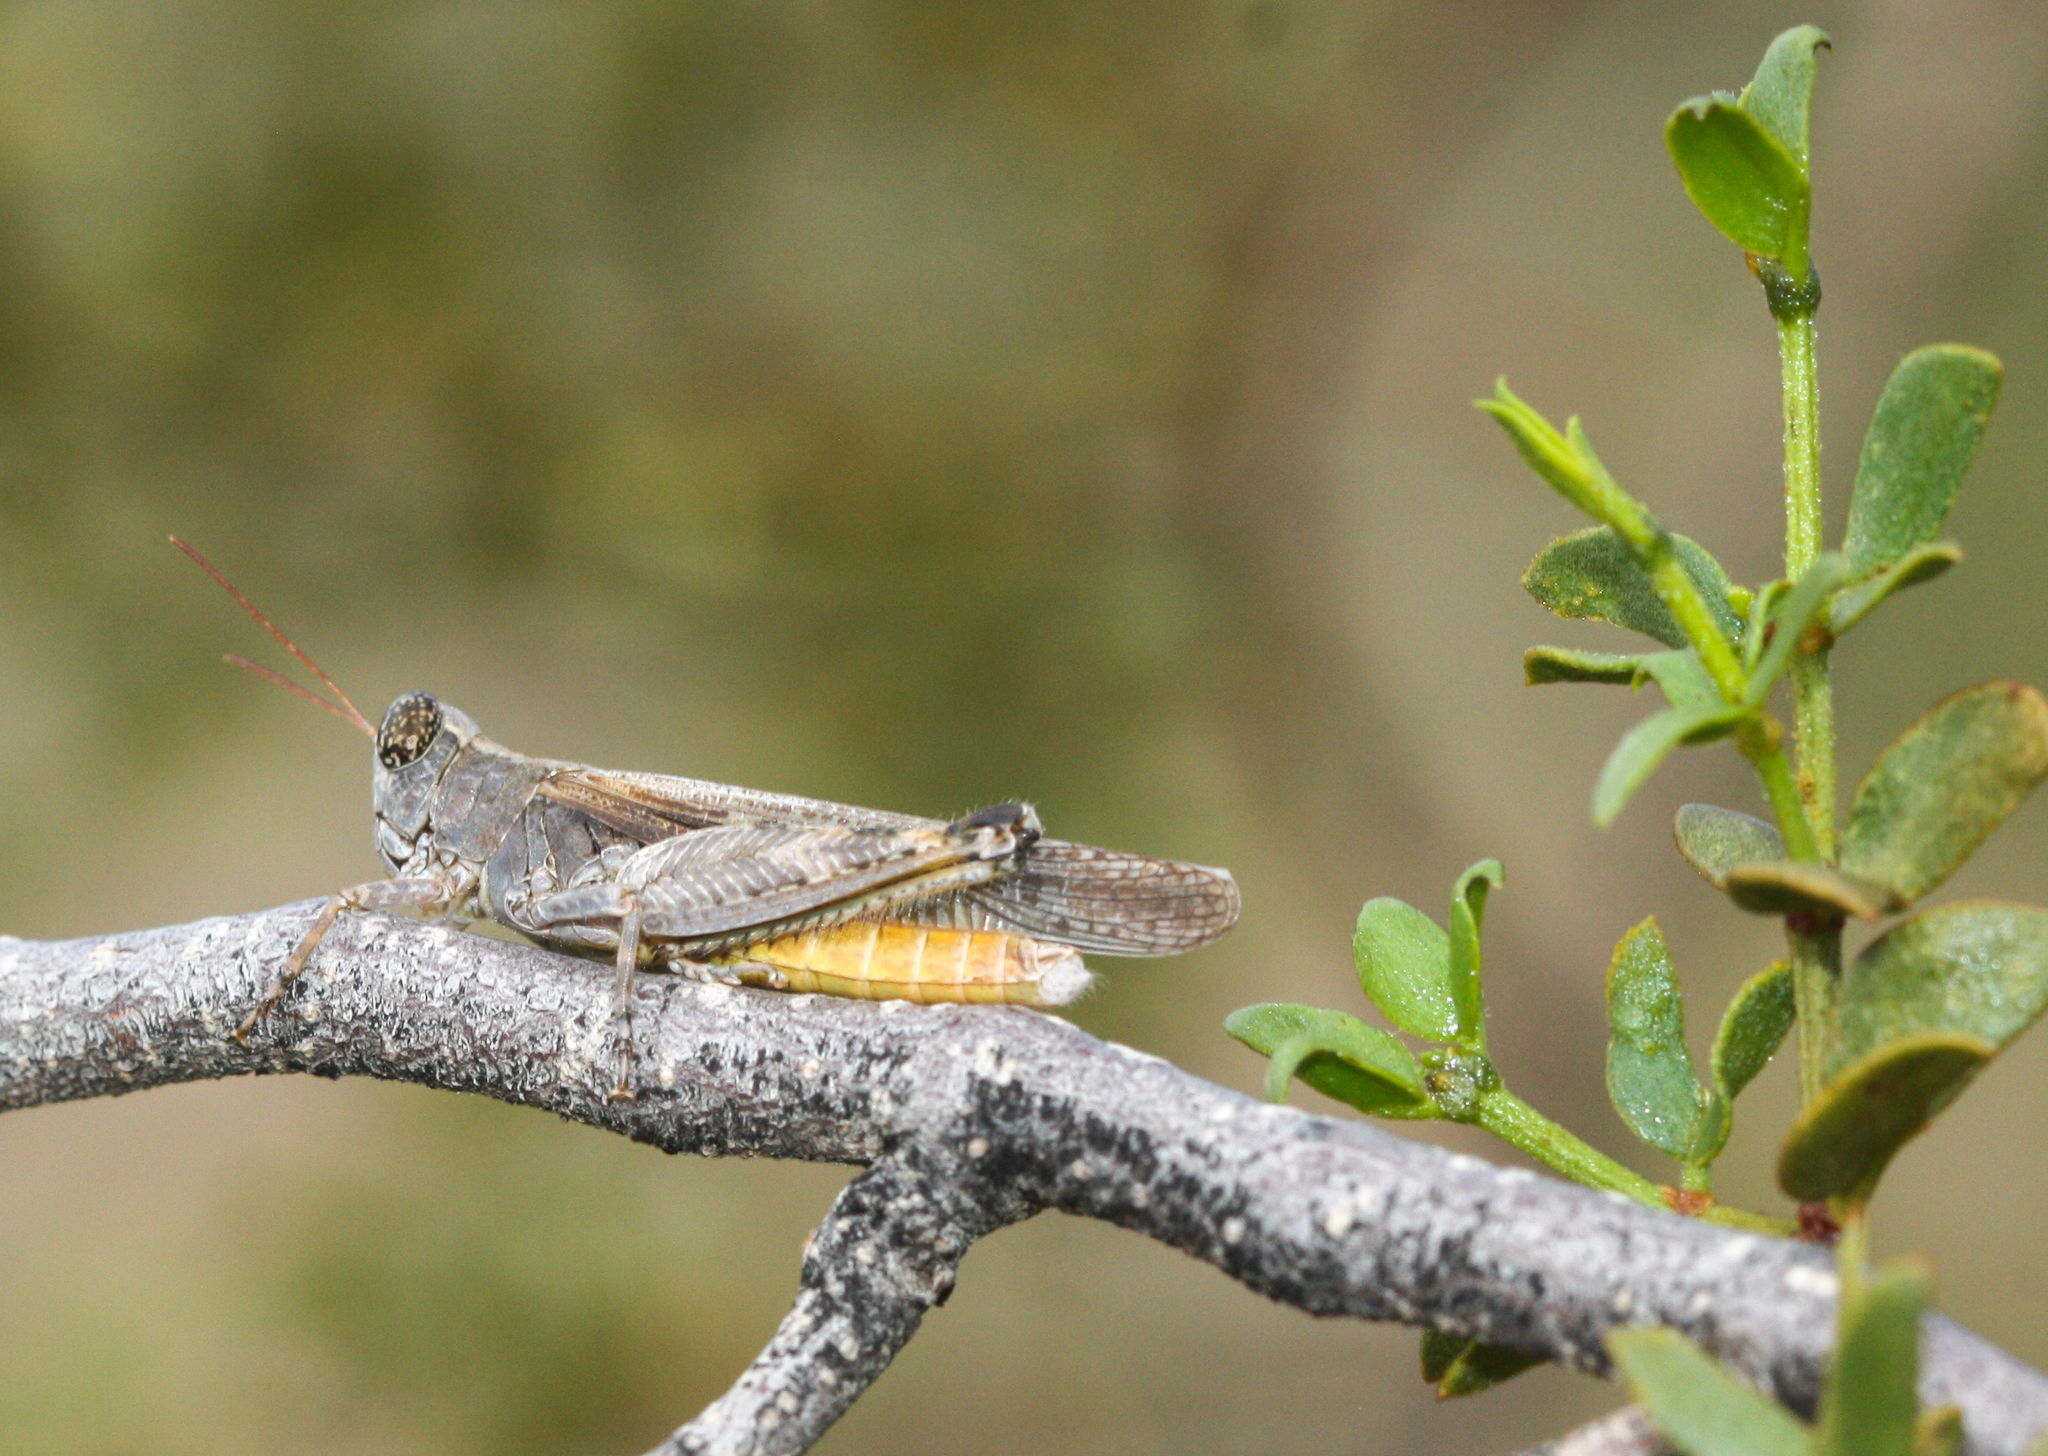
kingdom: Animalia
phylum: Arthropoda
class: Insecta
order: Orthoptera
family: Acrididae
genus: Ligurotettix
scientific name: Ligurotettix coquilletti
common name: Desert clicker grasshopper
